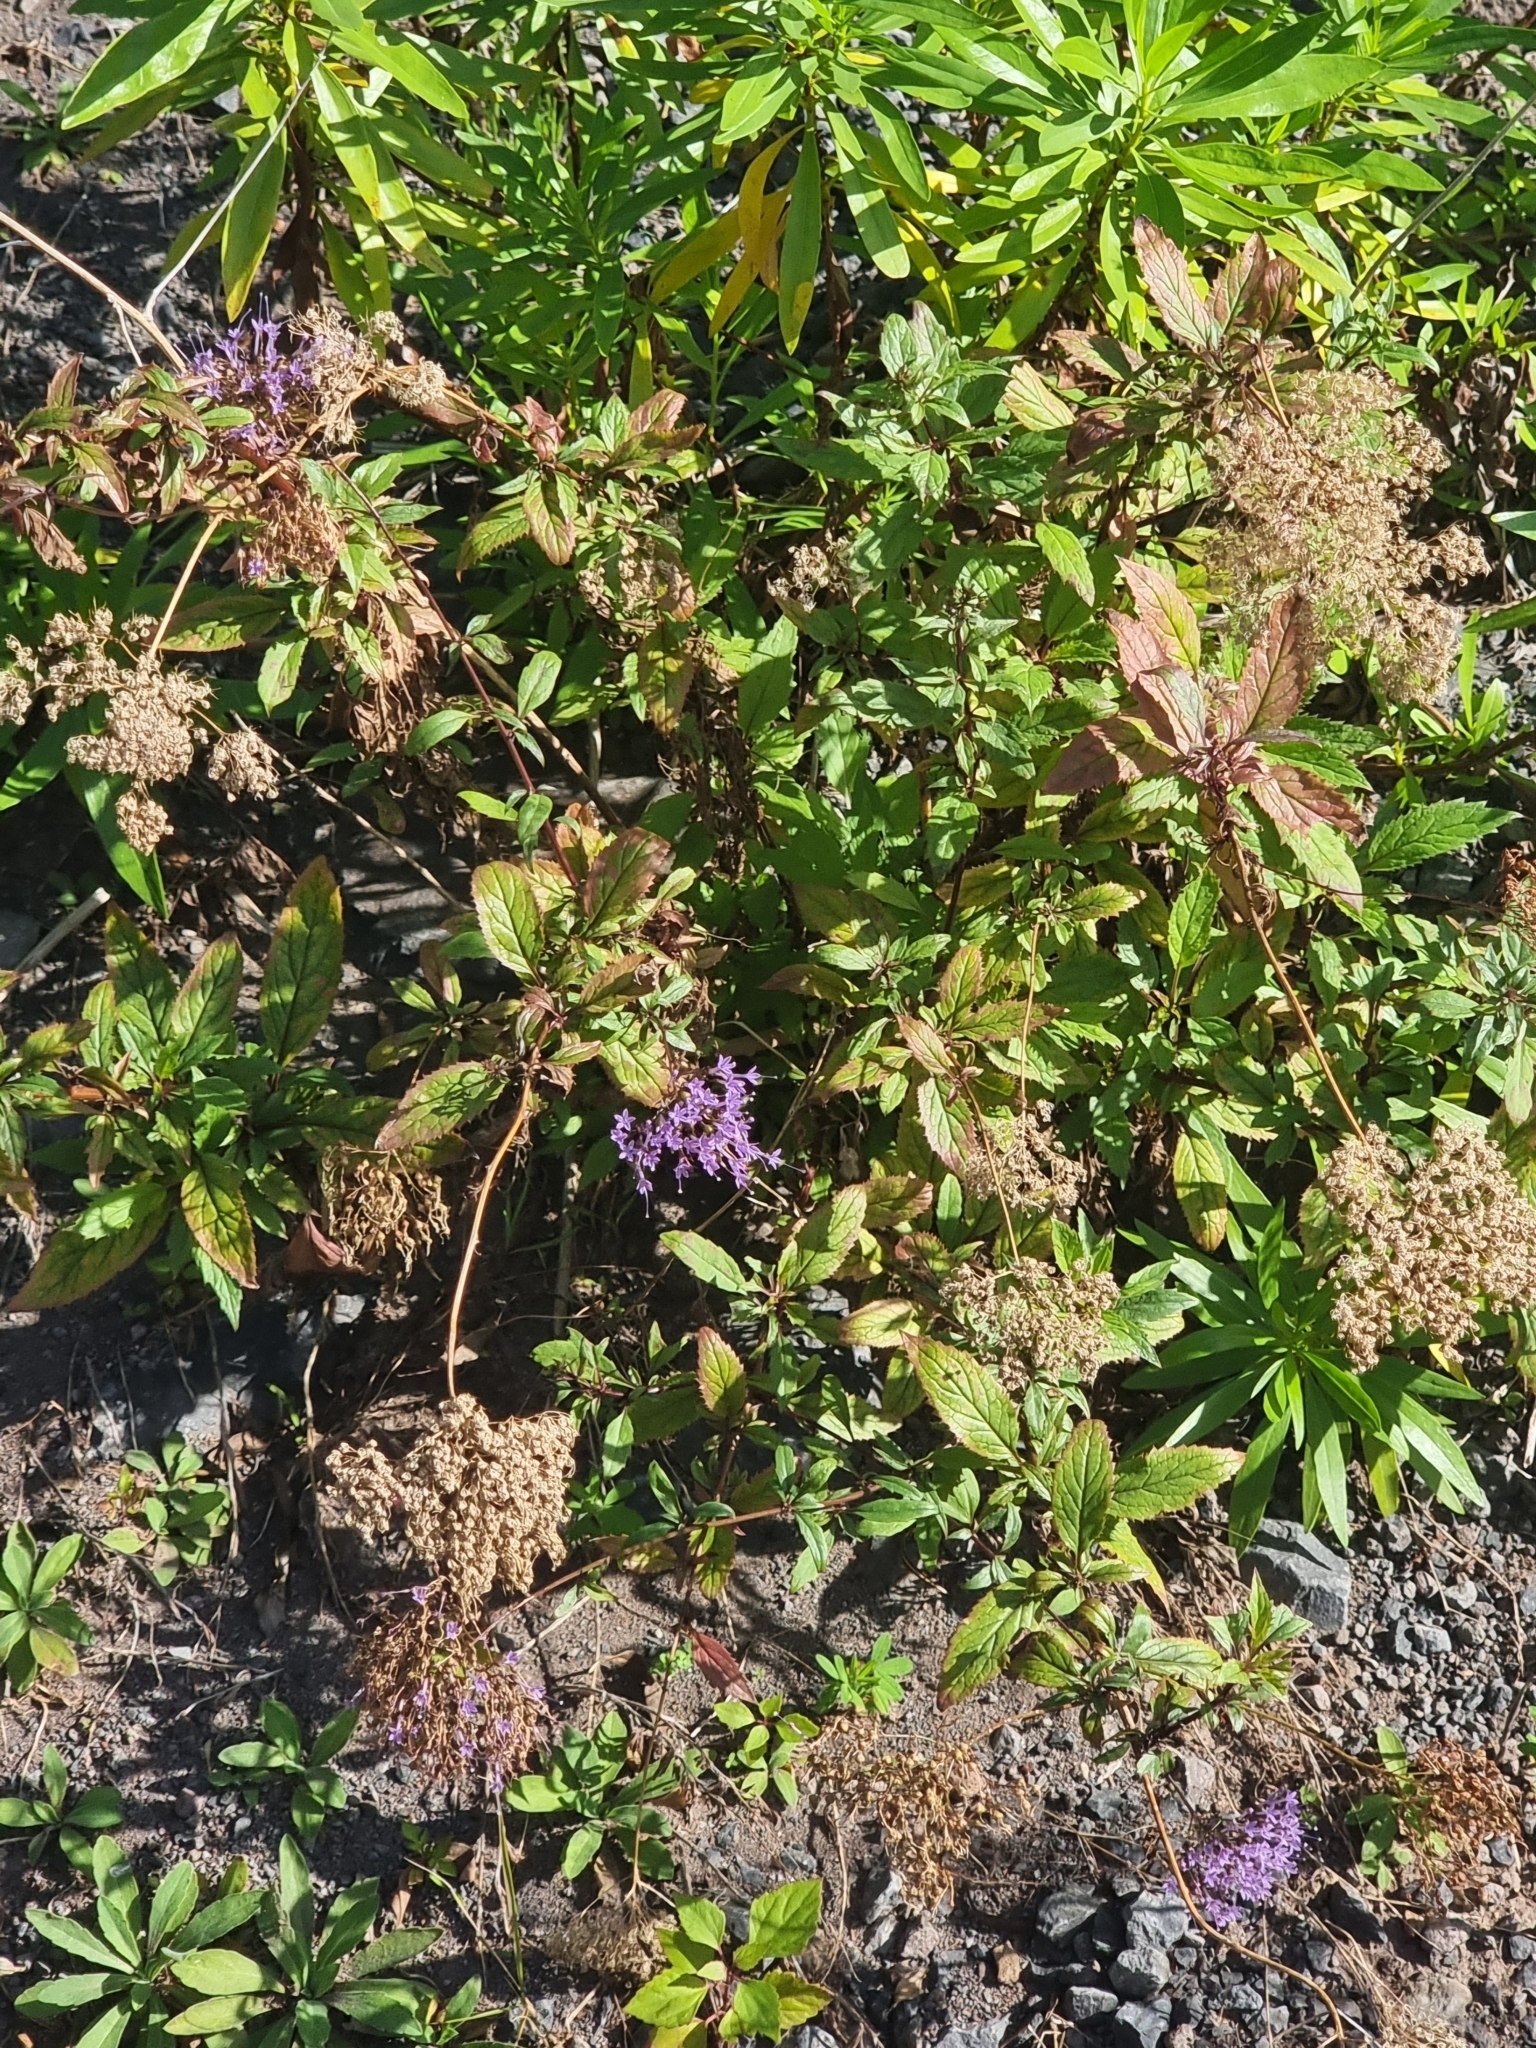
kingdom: Plantae
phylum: Tracheophyta
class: Magnoliopsida
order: Asterales
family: Campanulaceae
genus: Trachelium
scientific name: Trachelium caeruleum
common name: Throatwort
